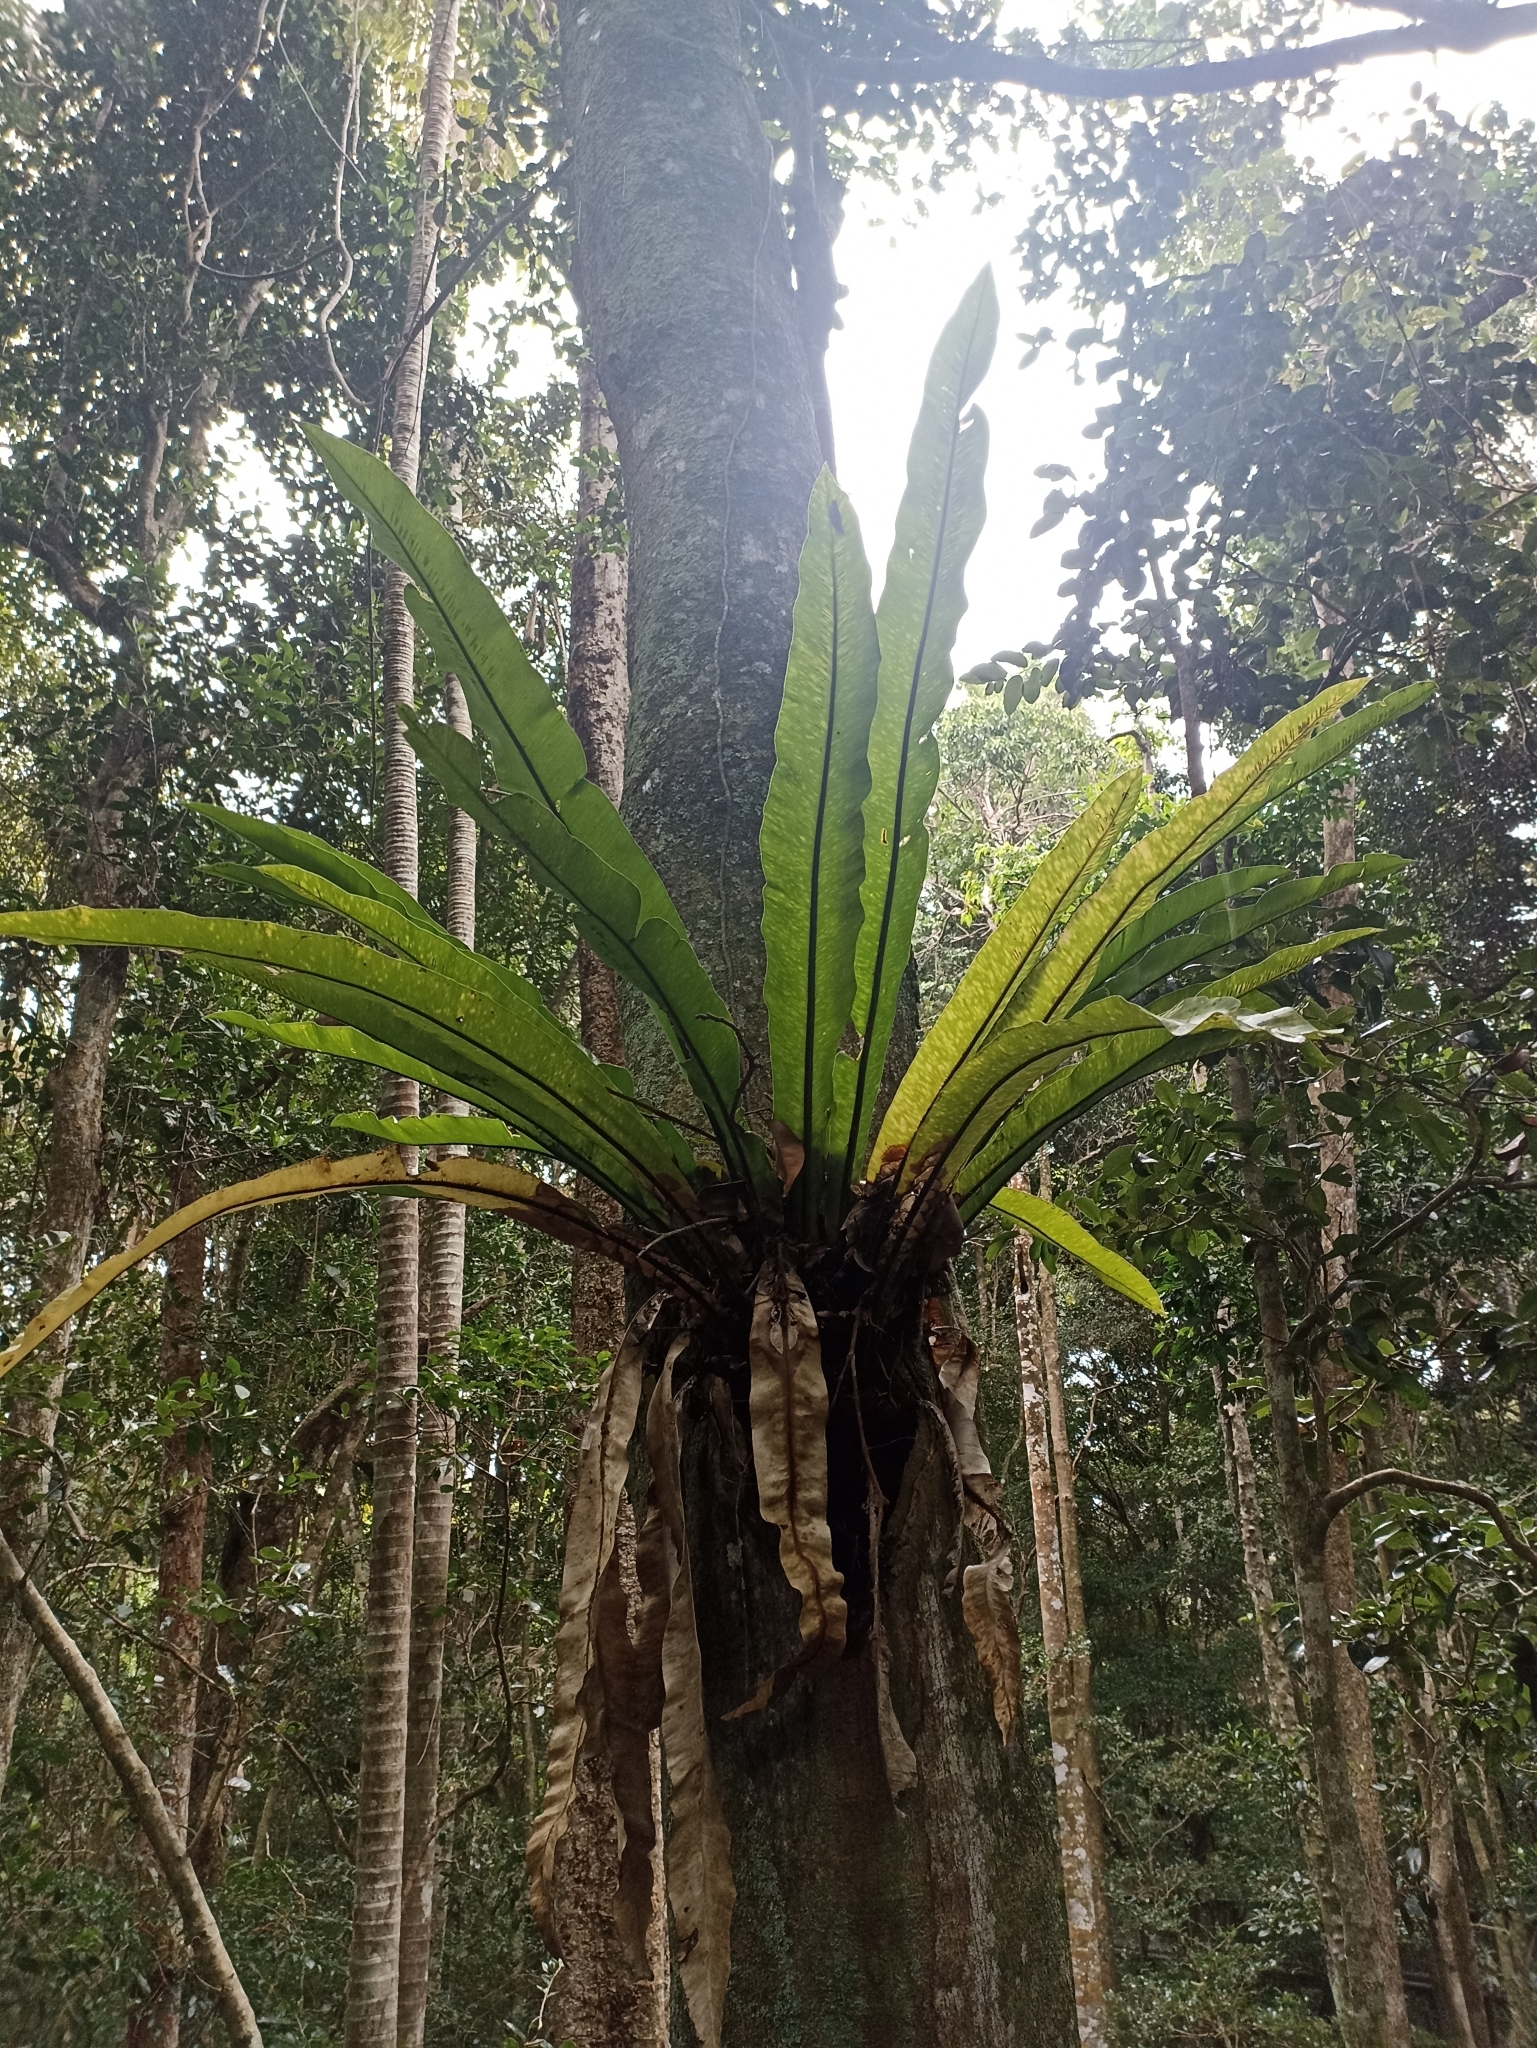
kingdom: Plantae
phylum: Tracheophyta
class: Polypodiopsida
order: Polypodiales
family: Aspleniaceae
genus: Asplenium
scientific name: Asplenium australasicum
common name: Bird's-nest fern
